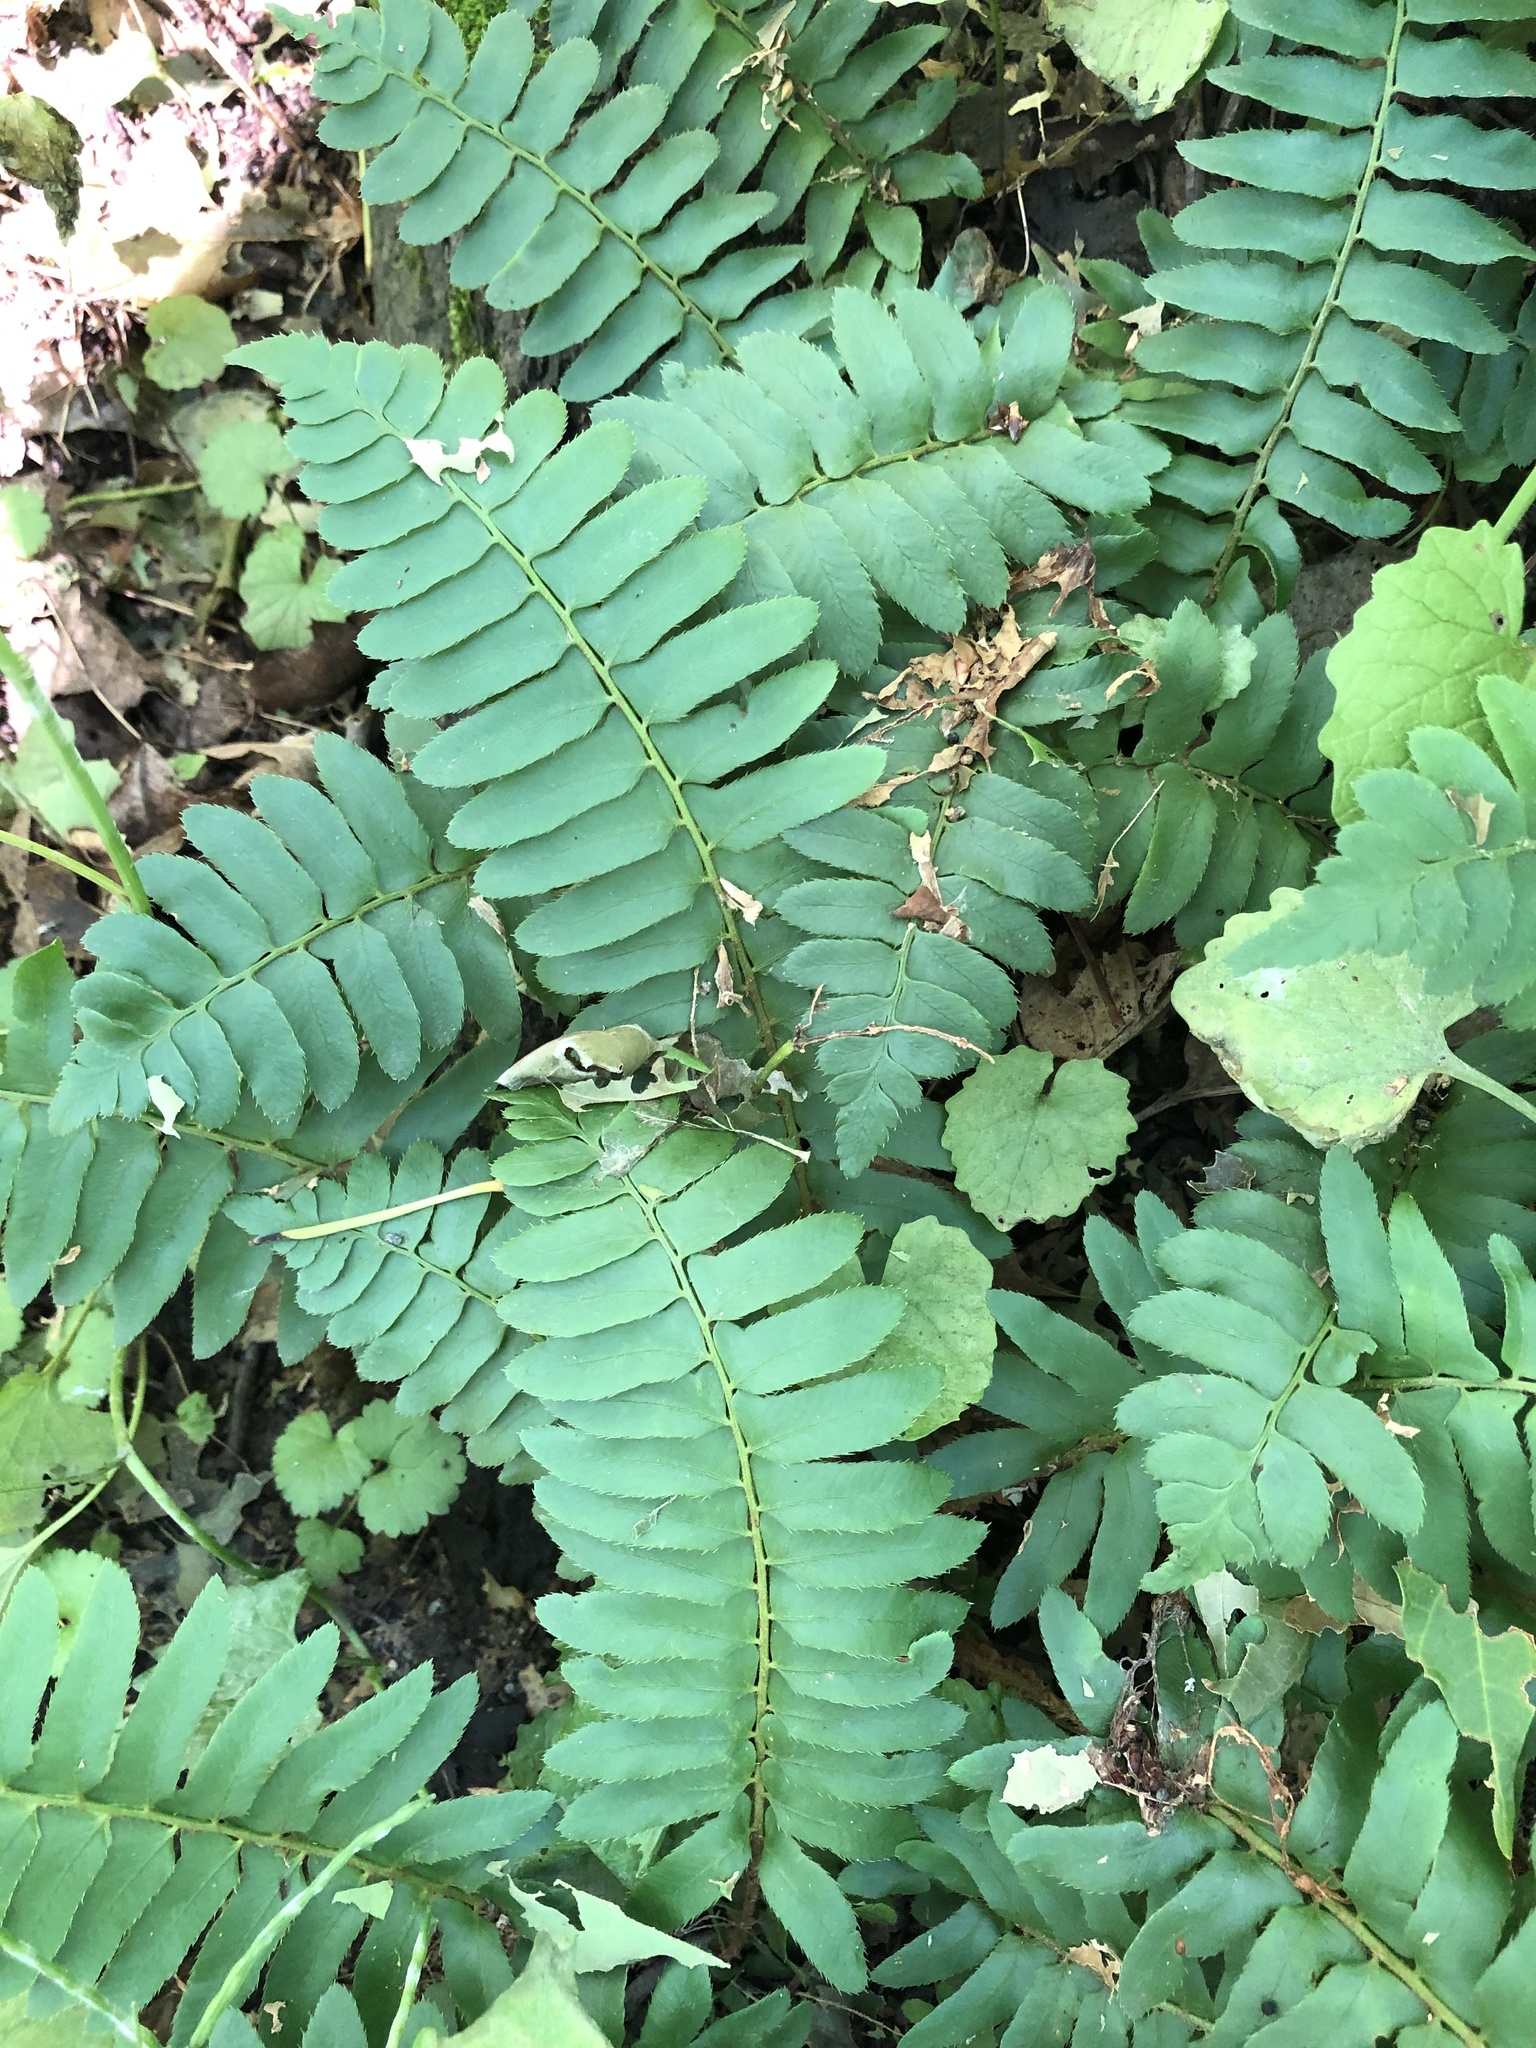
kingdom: Plantae
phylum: Tracheophyta
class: Polypodiopsida
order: Polypodiales
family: Dryopteridaceae
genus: Polystichum
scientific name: Polystichum acrostichoides
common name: Christmas fern
